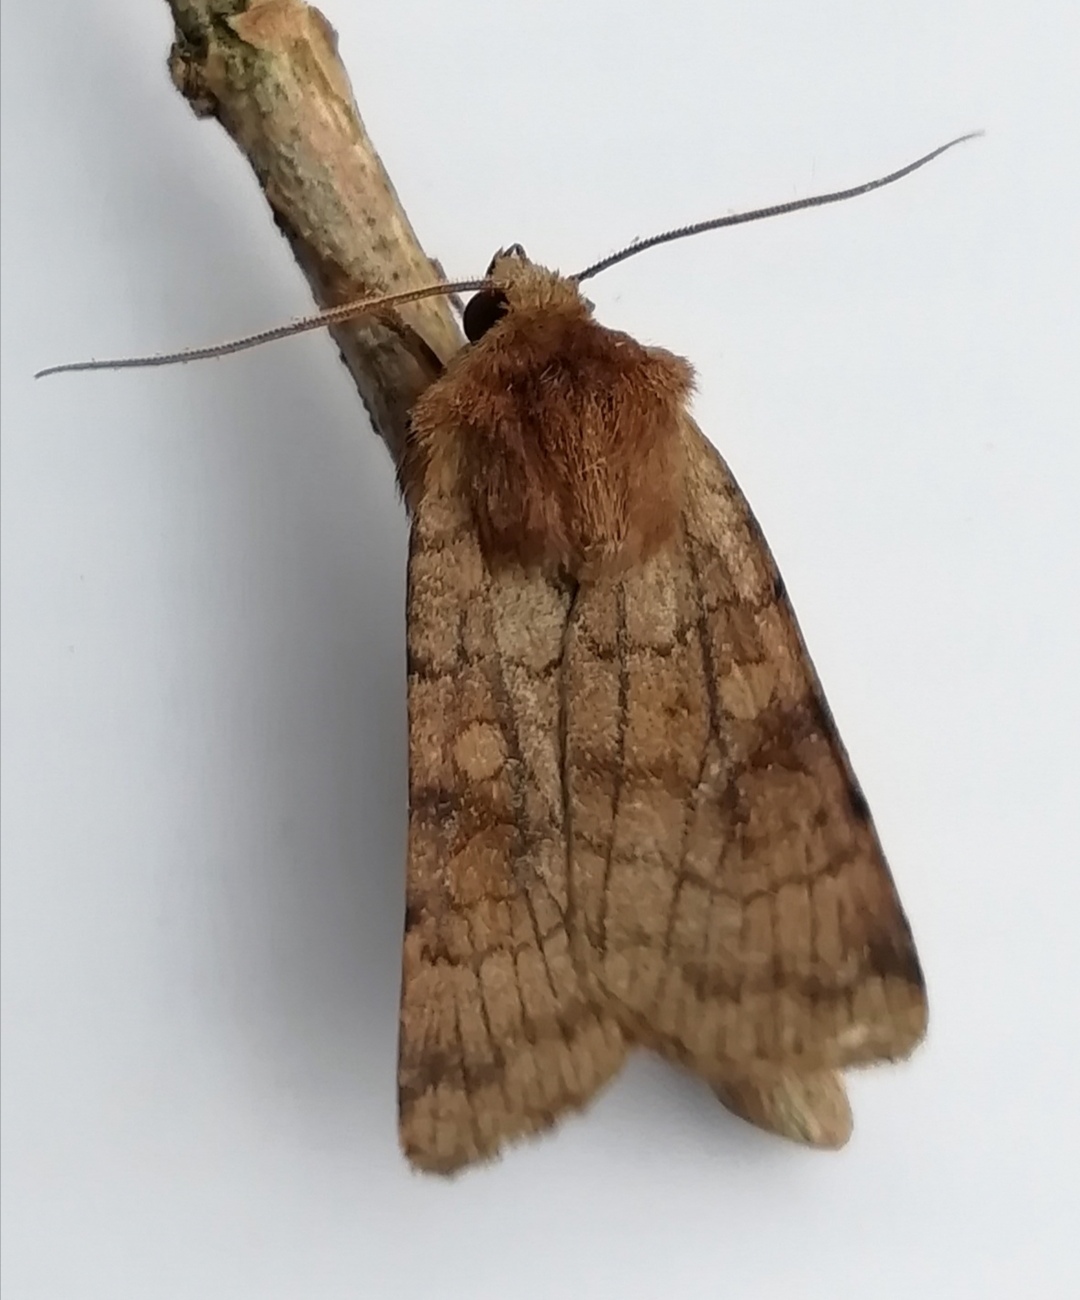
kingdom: Animalia
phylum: Arthropoda
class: Insecta
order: Lepidoptera
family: Noctuidae
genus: Xestia
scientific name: Xestia sexstrigata
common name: Six-striped rustic
